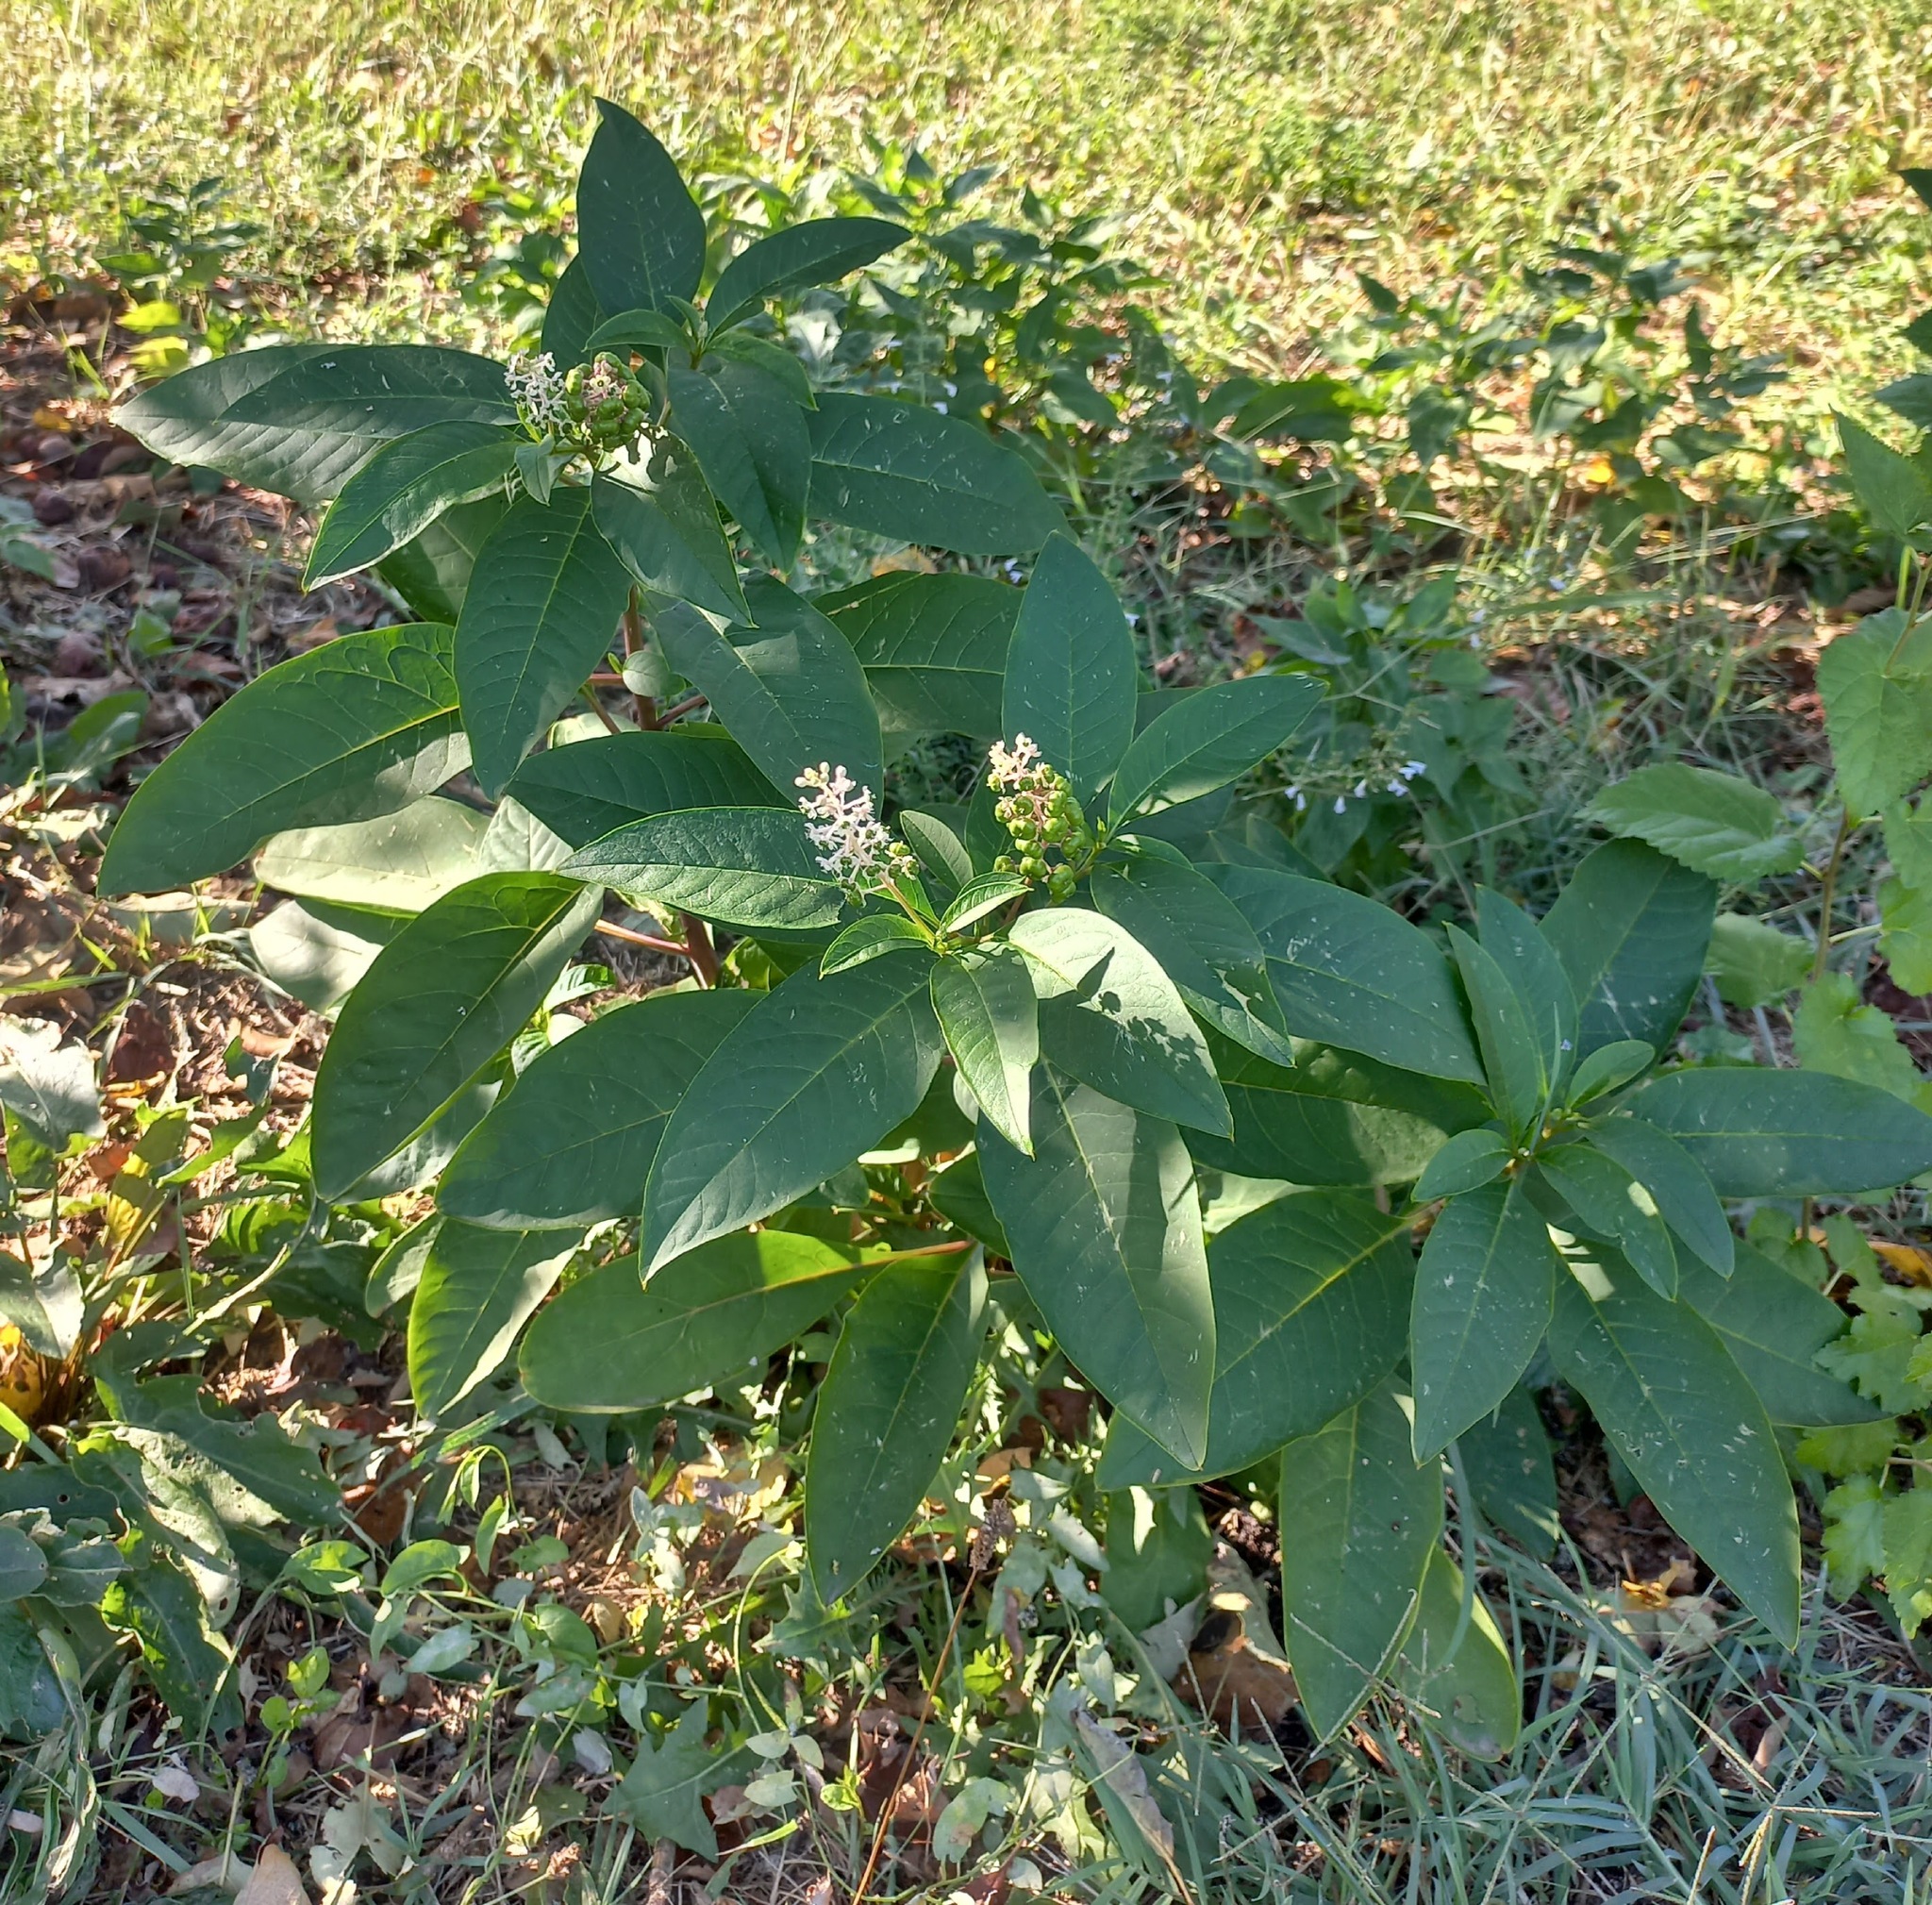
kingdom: Plantae
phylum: Tracheophyta
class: Magnoliopsida
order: Caryophyllales
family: Phytolaccaceae
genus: Phytolacca
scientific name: Phytolacca americana
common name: American pokeweed
